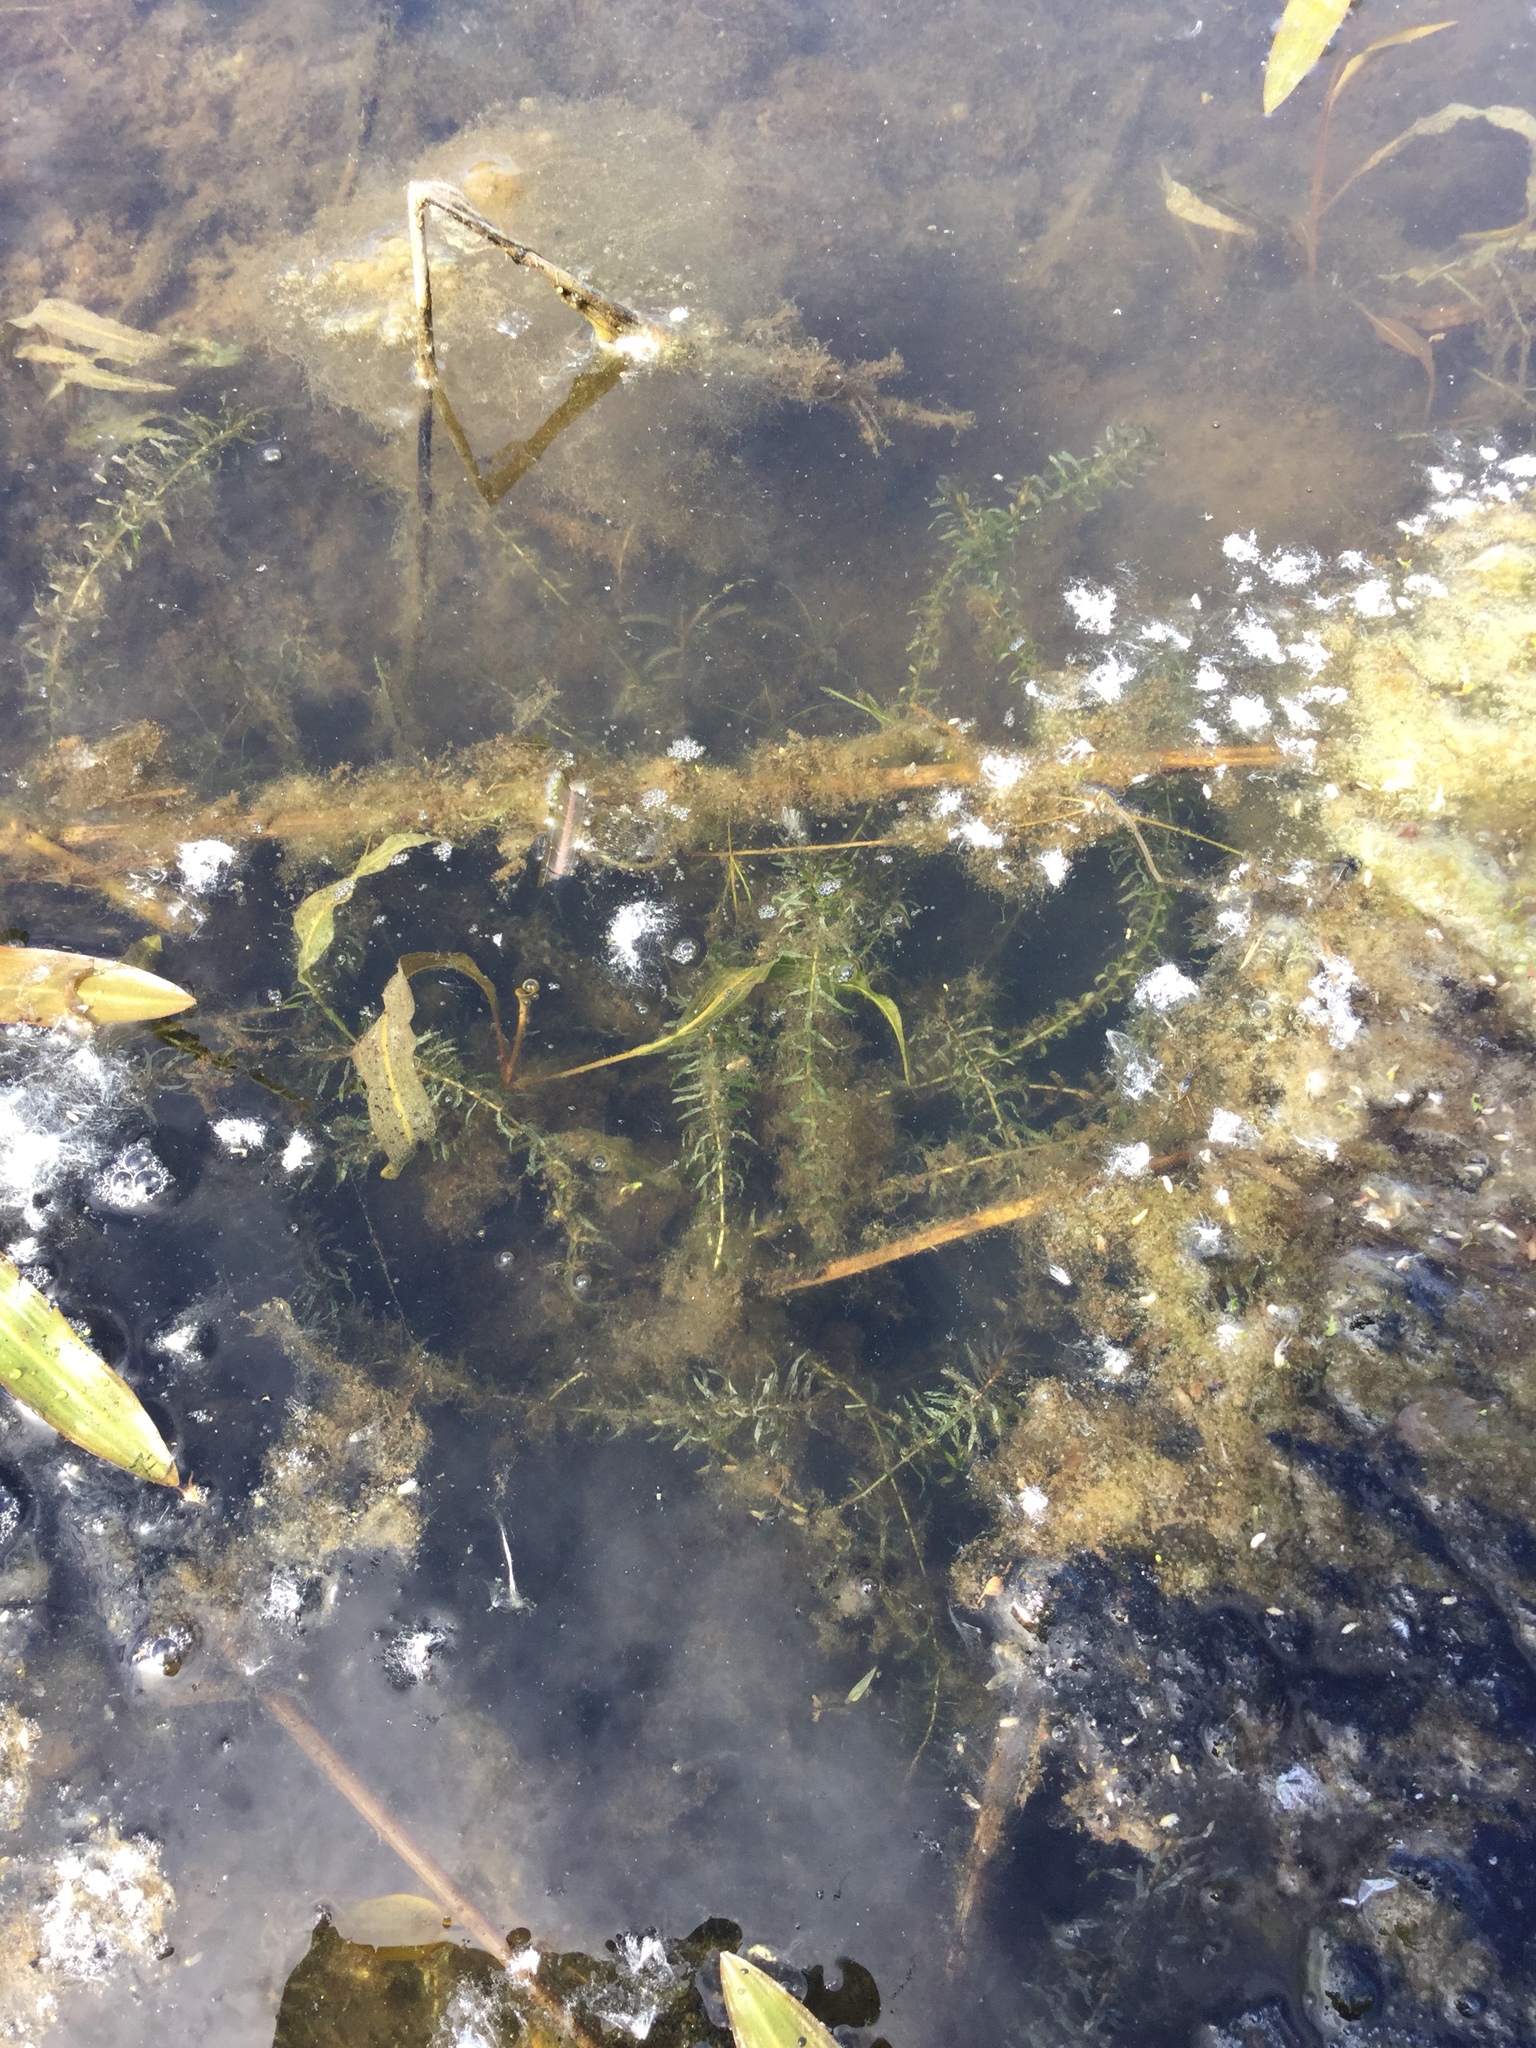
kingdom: Plantae
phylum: Tracheophyta
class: Liliopsida
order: Alismatales
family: Hydrocharitaceae
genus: Elodea
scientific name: Elodea nuttallii
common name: Nuttall's waterweed
